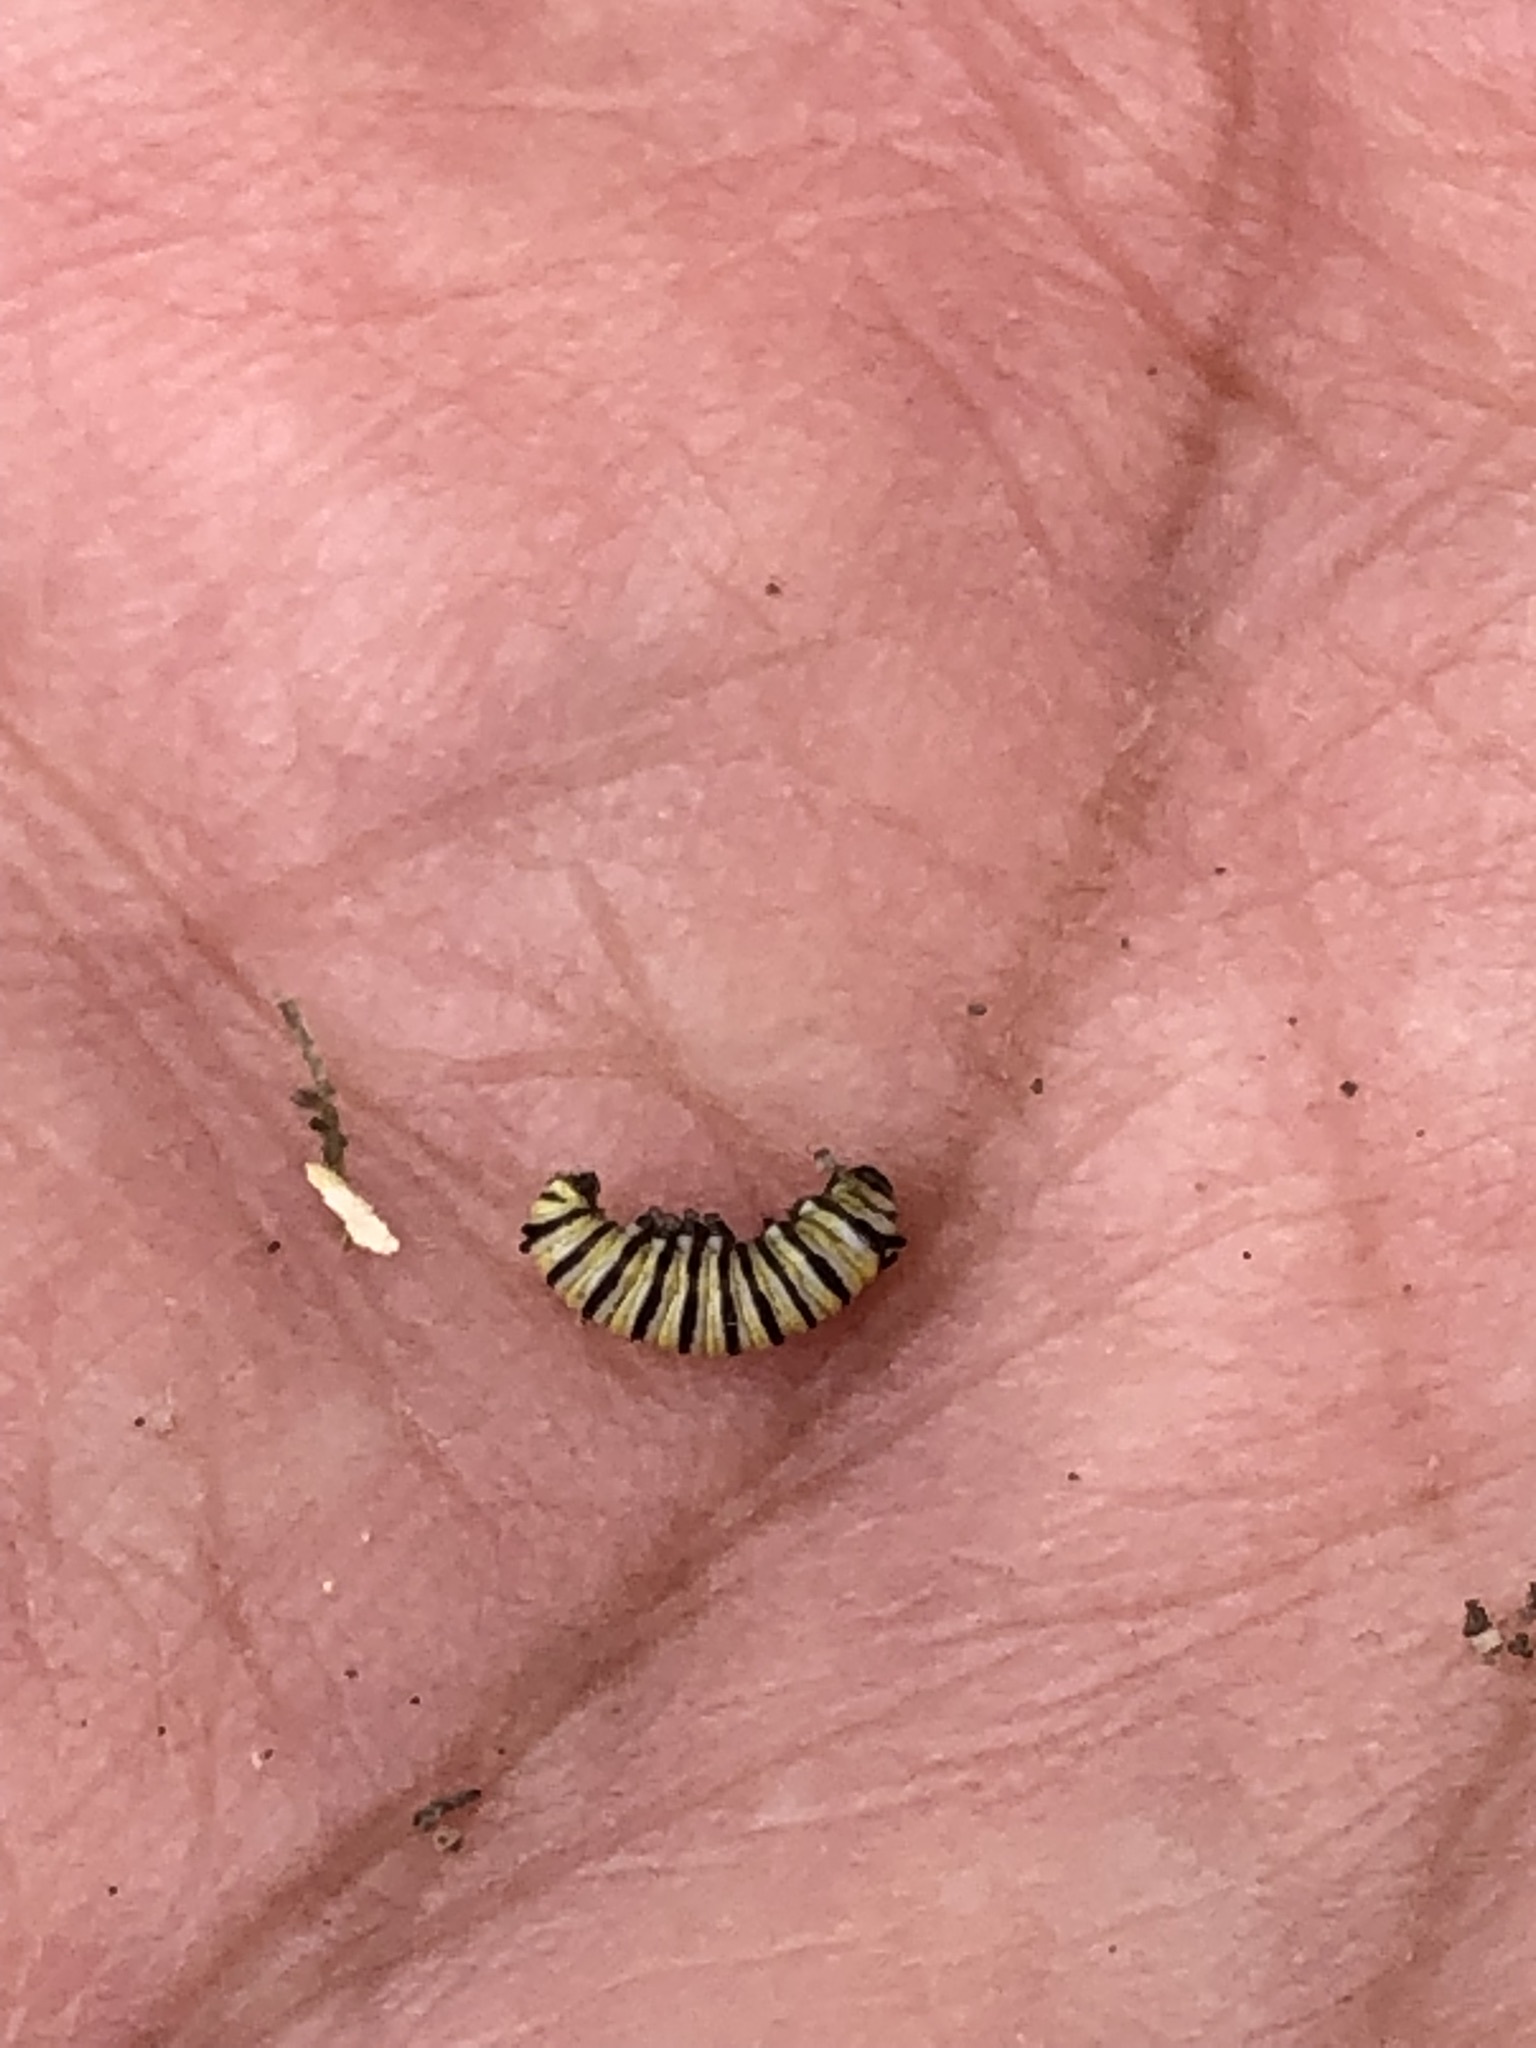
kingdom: Animalia
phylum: Arthropoda
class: Insecta
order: Lepidoptera
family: Nymphalidae
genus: Danaus
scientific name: Danaus plexippus
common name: Monarch
